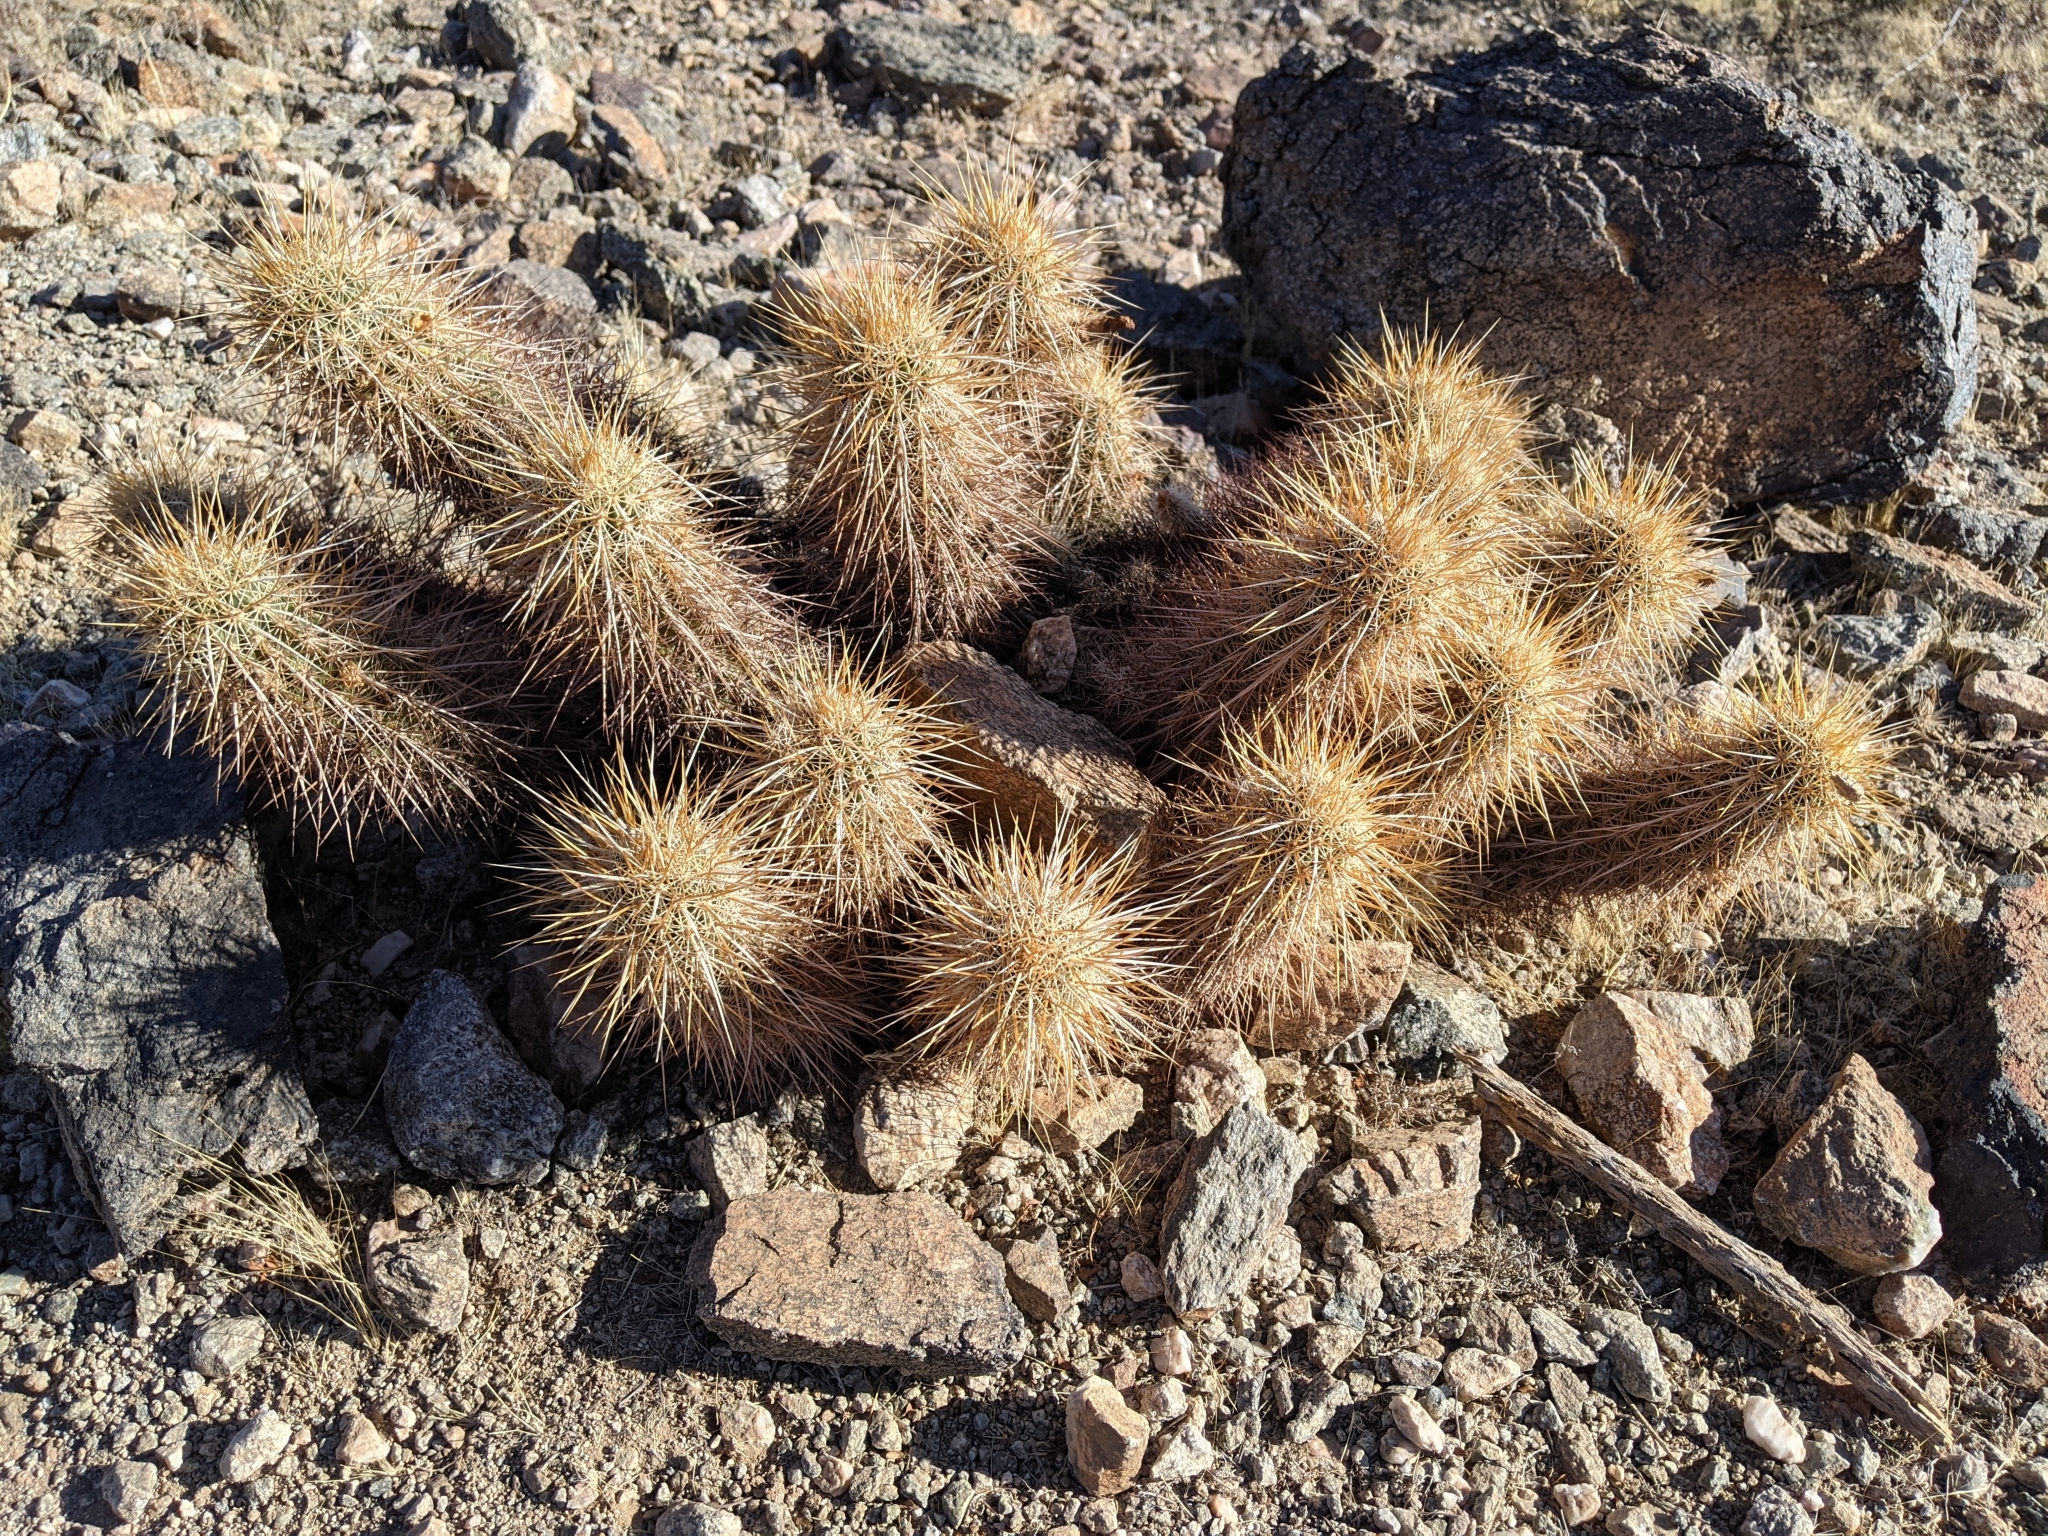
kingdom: Plantae
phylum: Tracheophyta
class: Magnoliopsida
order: Caryophyllales
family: Cactaceae
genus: Echinocereus
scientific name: Echinocereus engelmannii
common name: Engelmann's hedgehog cactus
